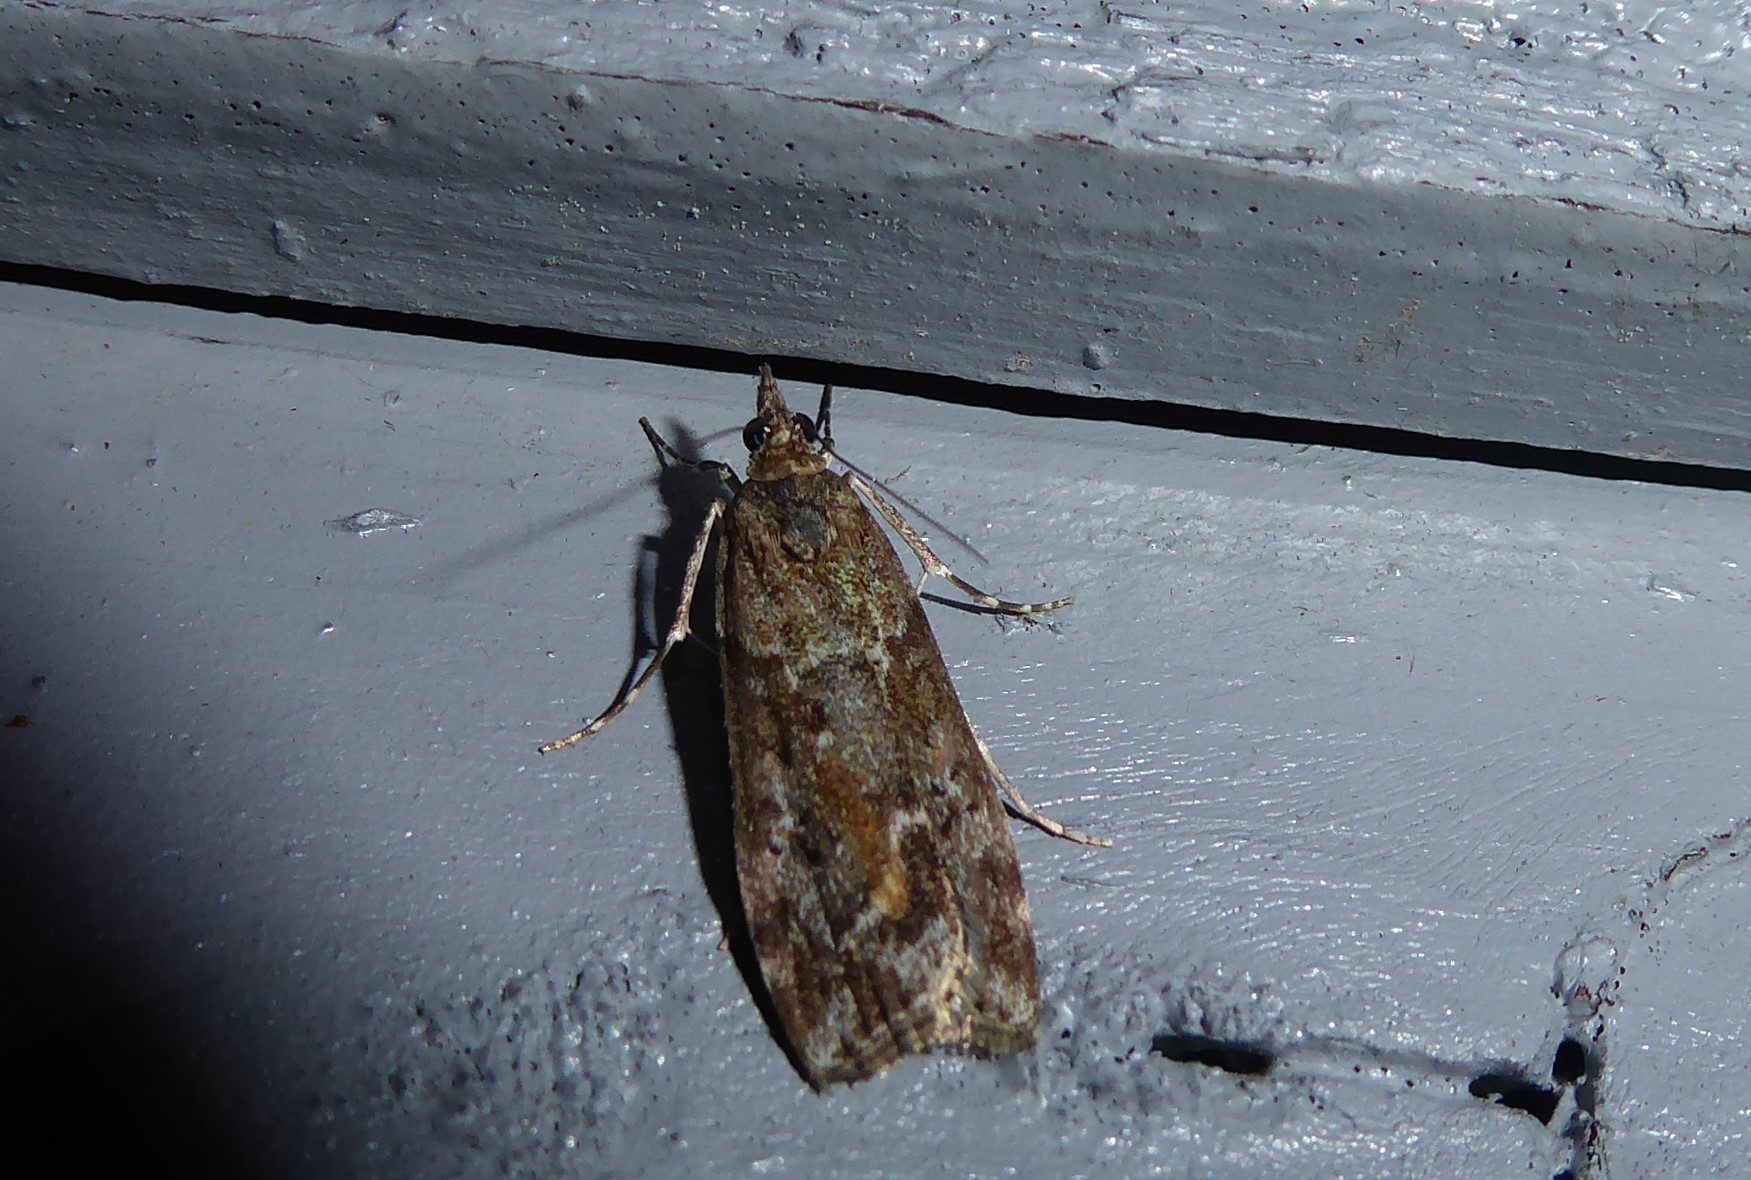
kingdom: Animalia
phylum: Arthropoda
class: Insecta
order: Lepidoptera
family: Crambidae
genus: Eudonia
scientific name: Eudonia submarginalis
